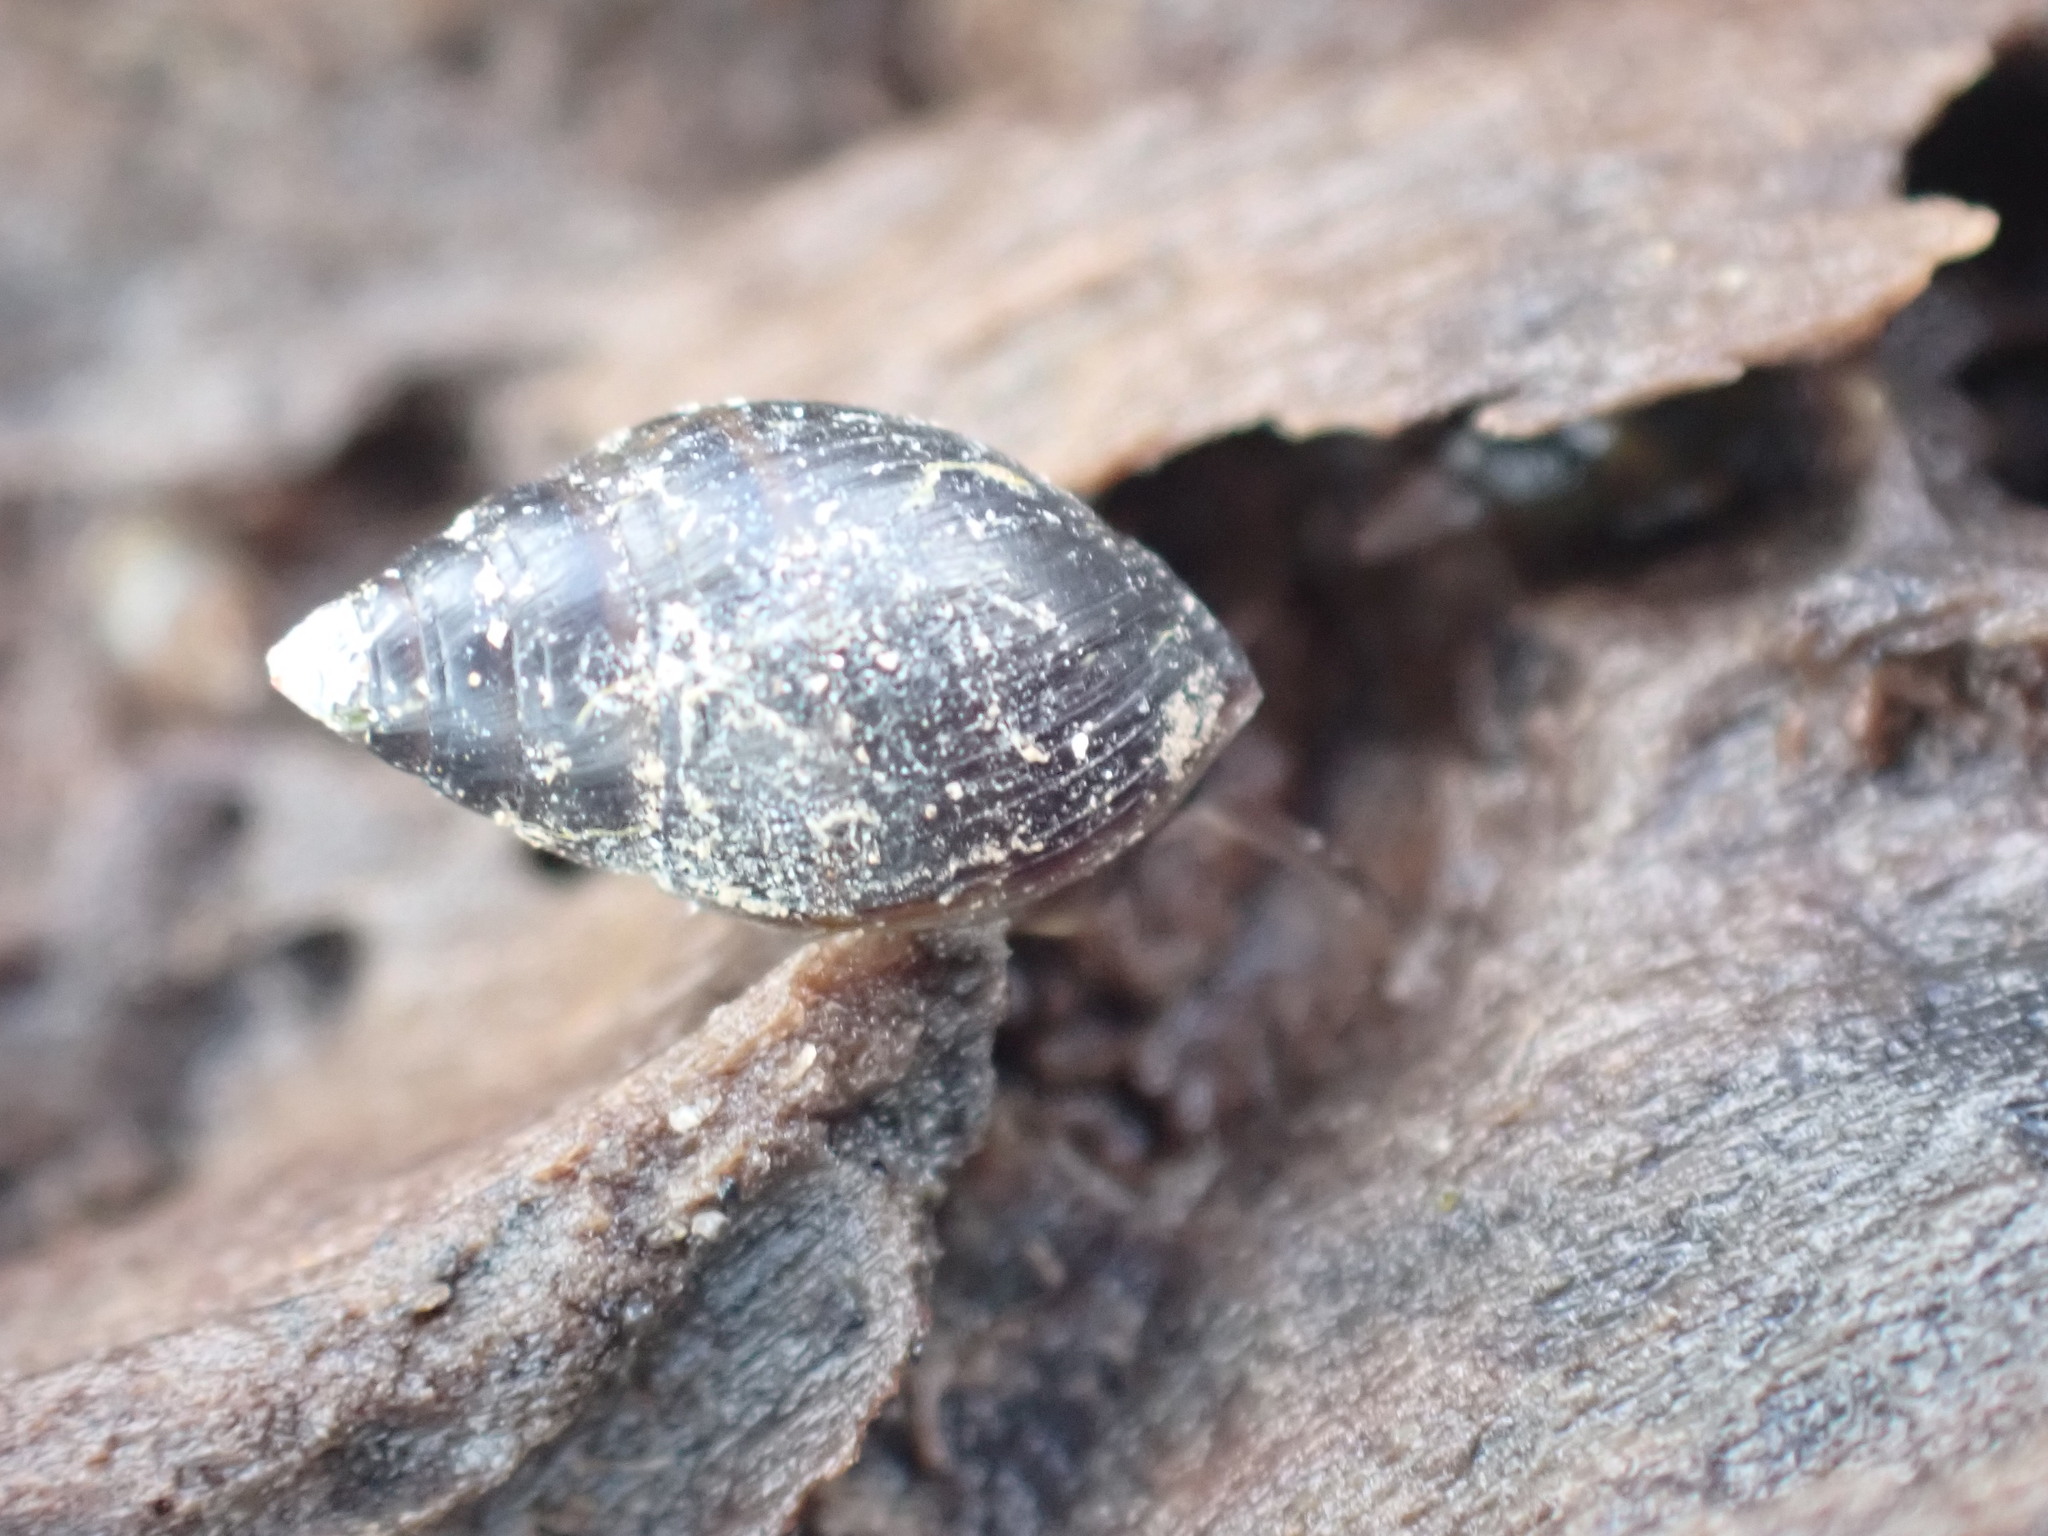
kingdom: Animalia
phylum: Mollusca
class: Gastropoda
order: Ellobiida
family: Ellobiidae
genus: Pleuroloba
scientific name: Pleuroloba costellaris
